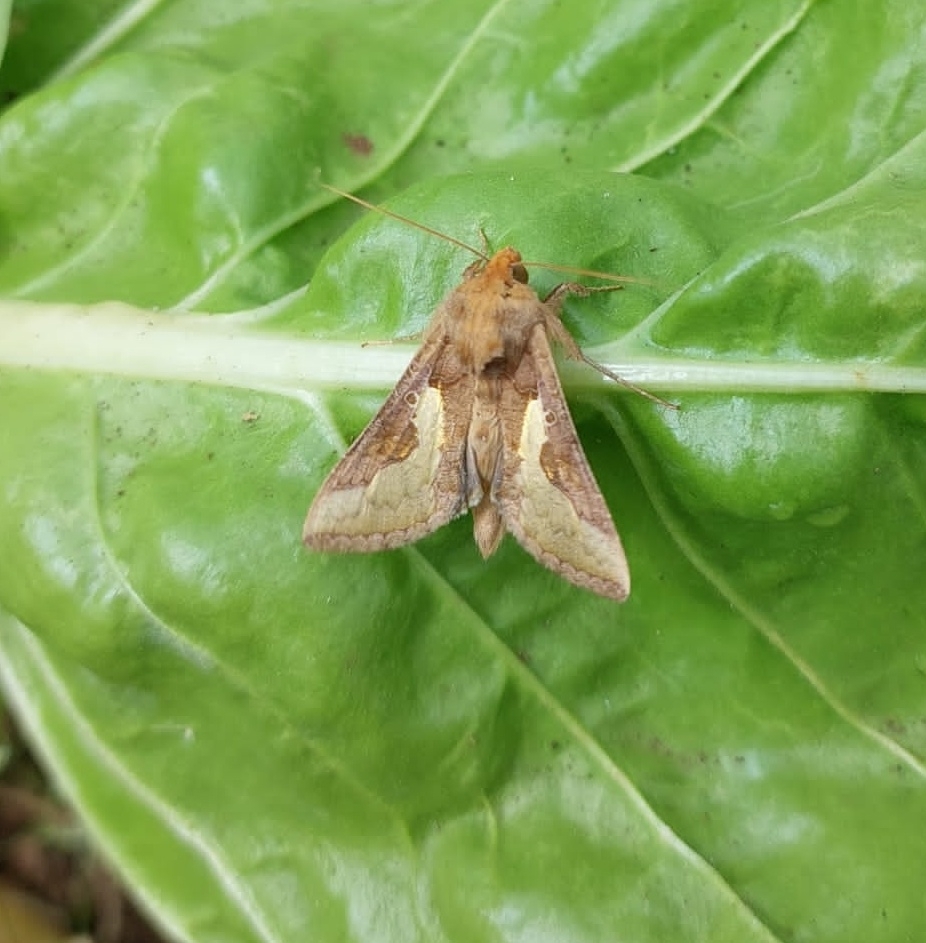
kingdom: Animalia
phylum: Arthropoda
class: Insecta
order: Lepidoptera
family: Noctuidae
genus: Thysanoplusia
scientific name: Thysanoplusia orichalcea
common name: Slender burnished brass, golden plusia
